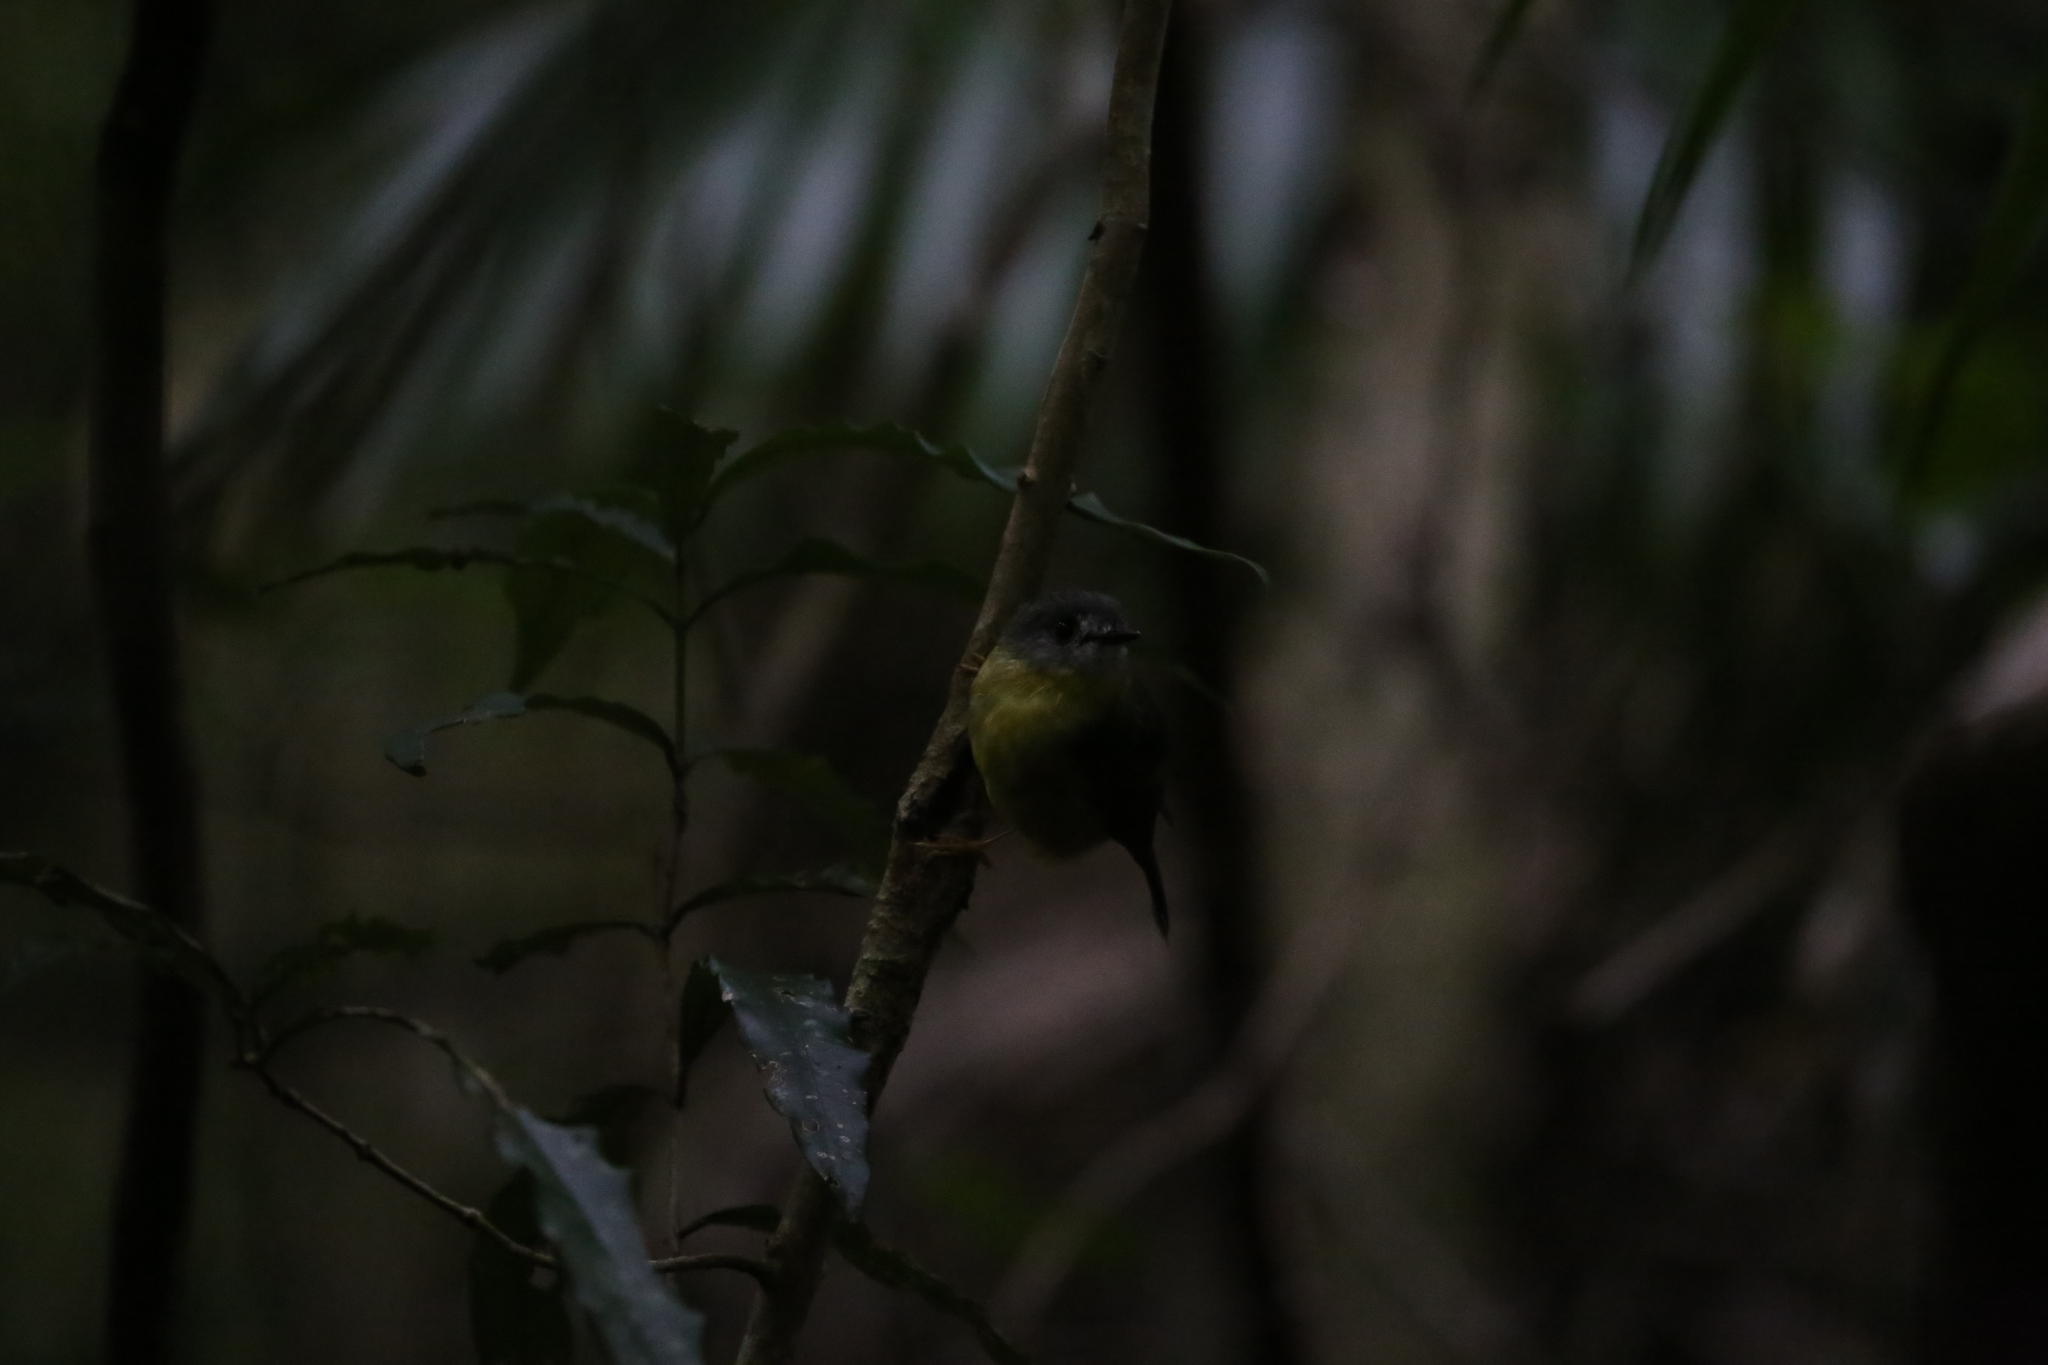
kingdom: Animalia
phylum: Chordata
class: Aves
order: Passeriformes
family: Petroicidae
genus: Eopsaltria
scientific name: Eopsaltria
